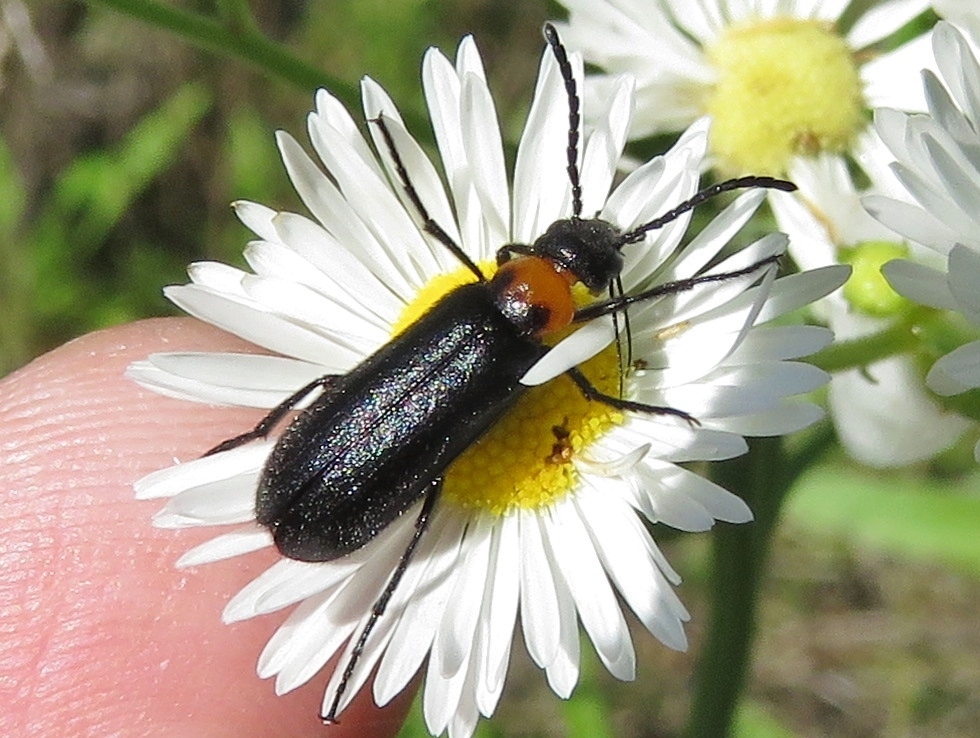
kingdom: Animalia
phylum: Arthropoda
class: Insecta
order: Coleoptera
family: Meloidae
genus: Nemognatha
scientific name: Nemognatha nemorensis
